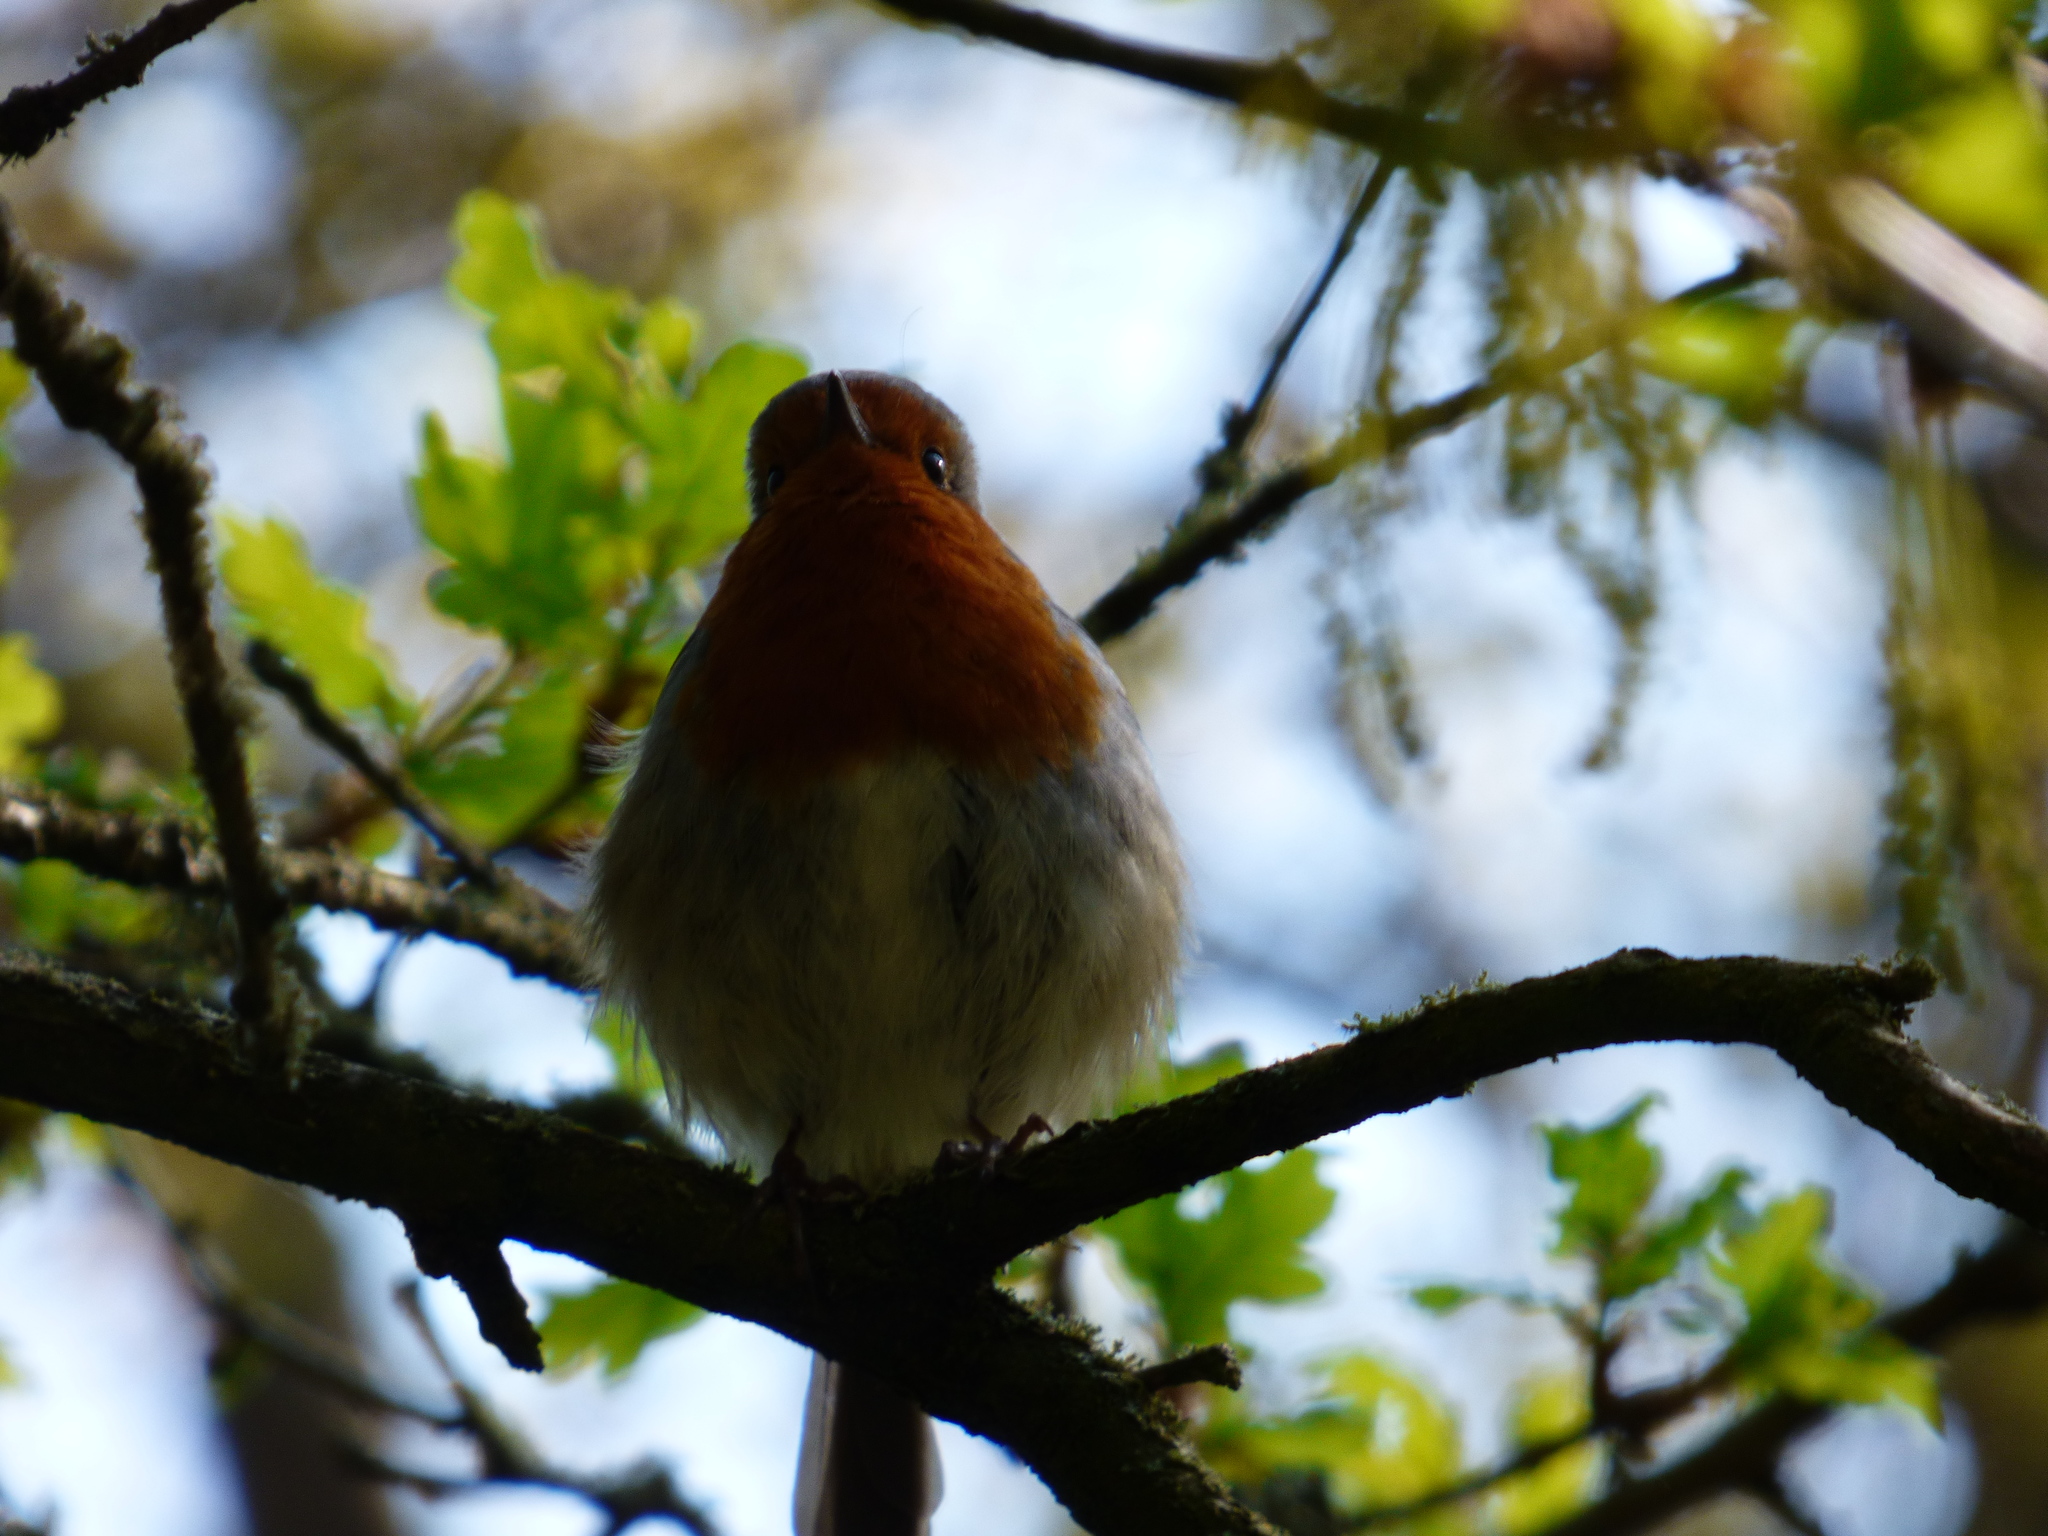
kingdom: Animalia
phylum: Chordata
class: Aves
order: Passeriformes
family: Muscicapidae
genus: Erithacus
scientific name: Erithacus rubecula
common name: European robin
